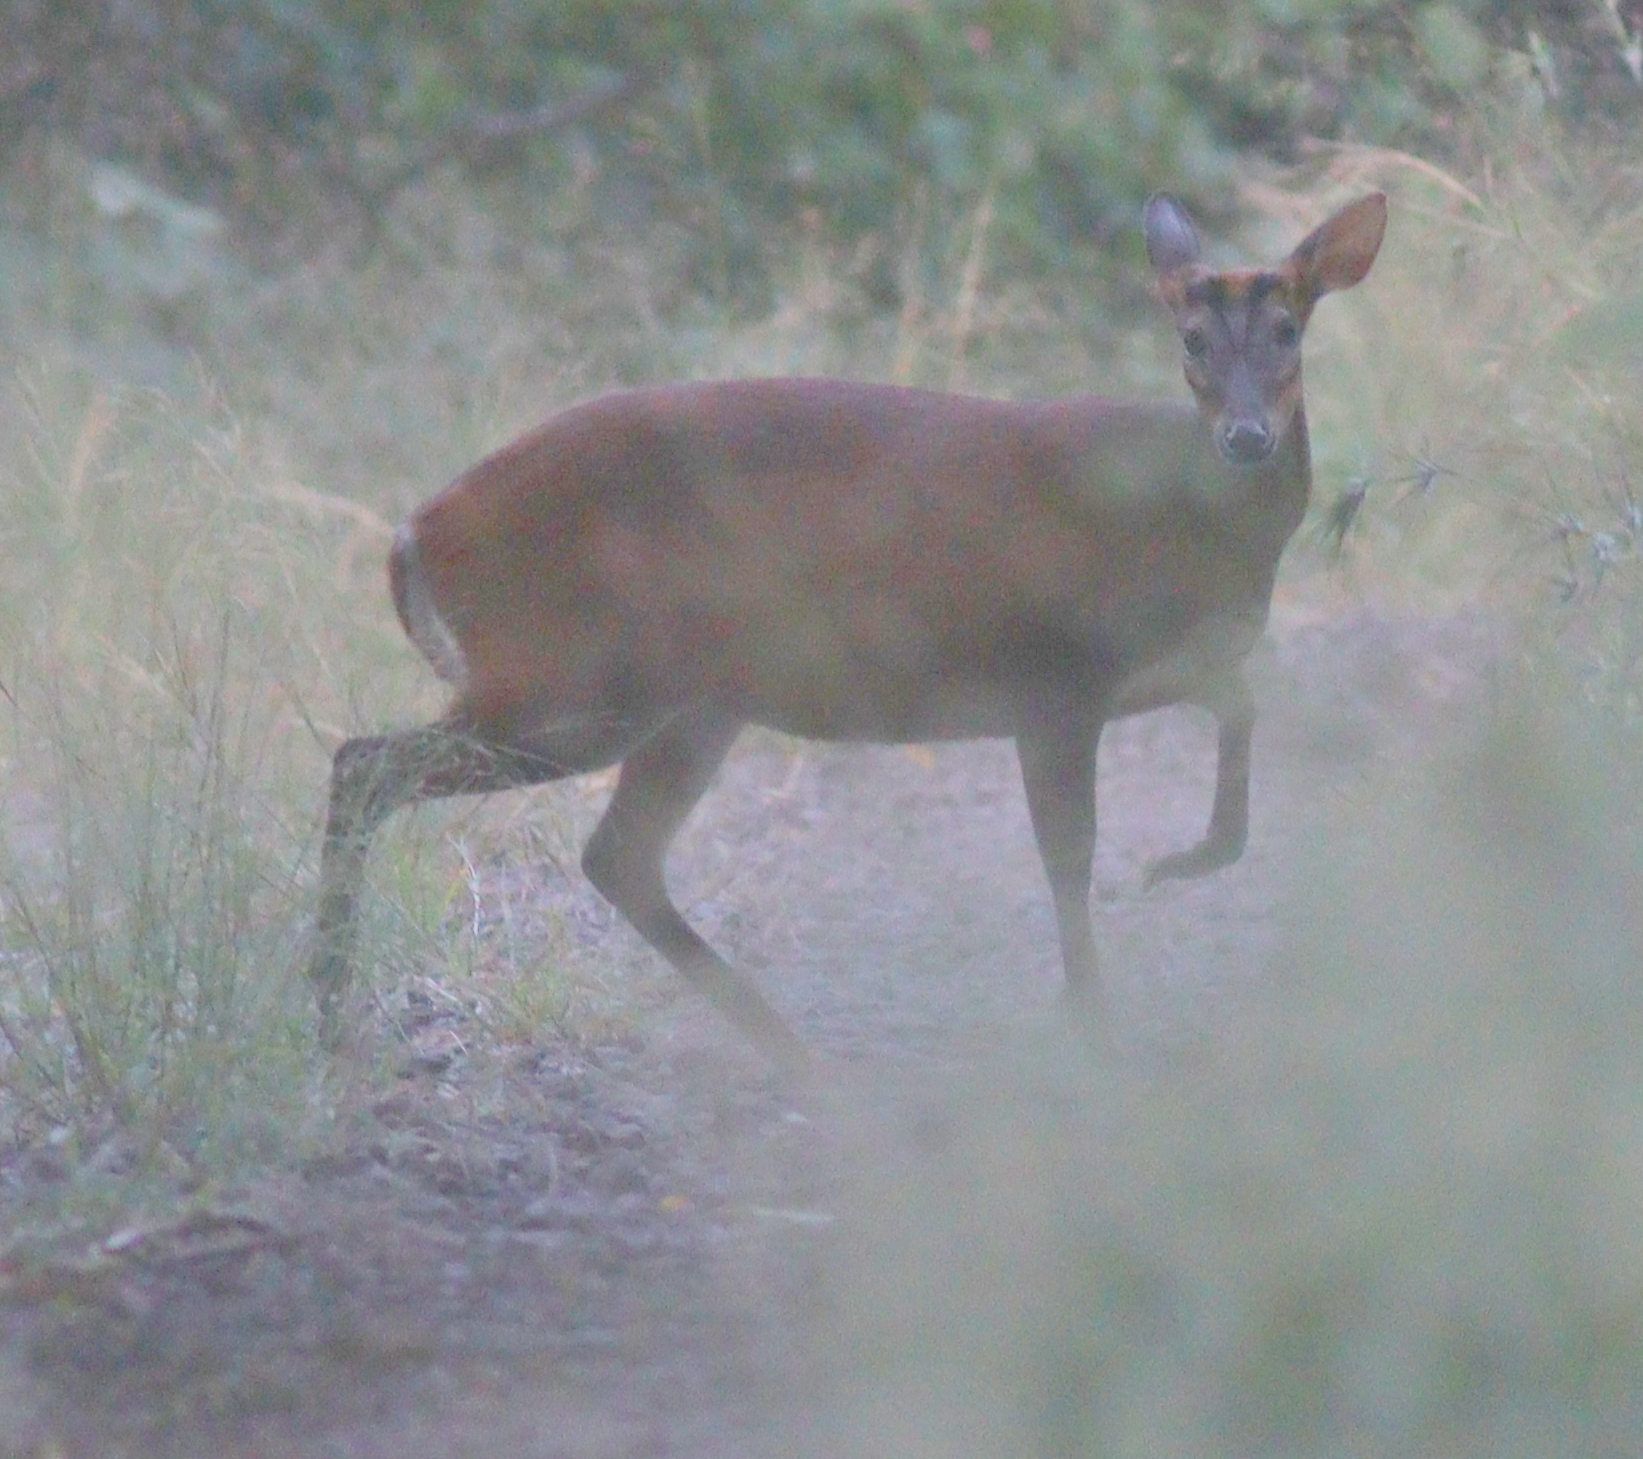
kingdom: Animalia
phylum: Chordata
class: Mammalia
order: Artiodactyla
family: Cervidae
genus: Muntiacus
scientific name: Muntiacus muntjak
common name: Indian muntjac
